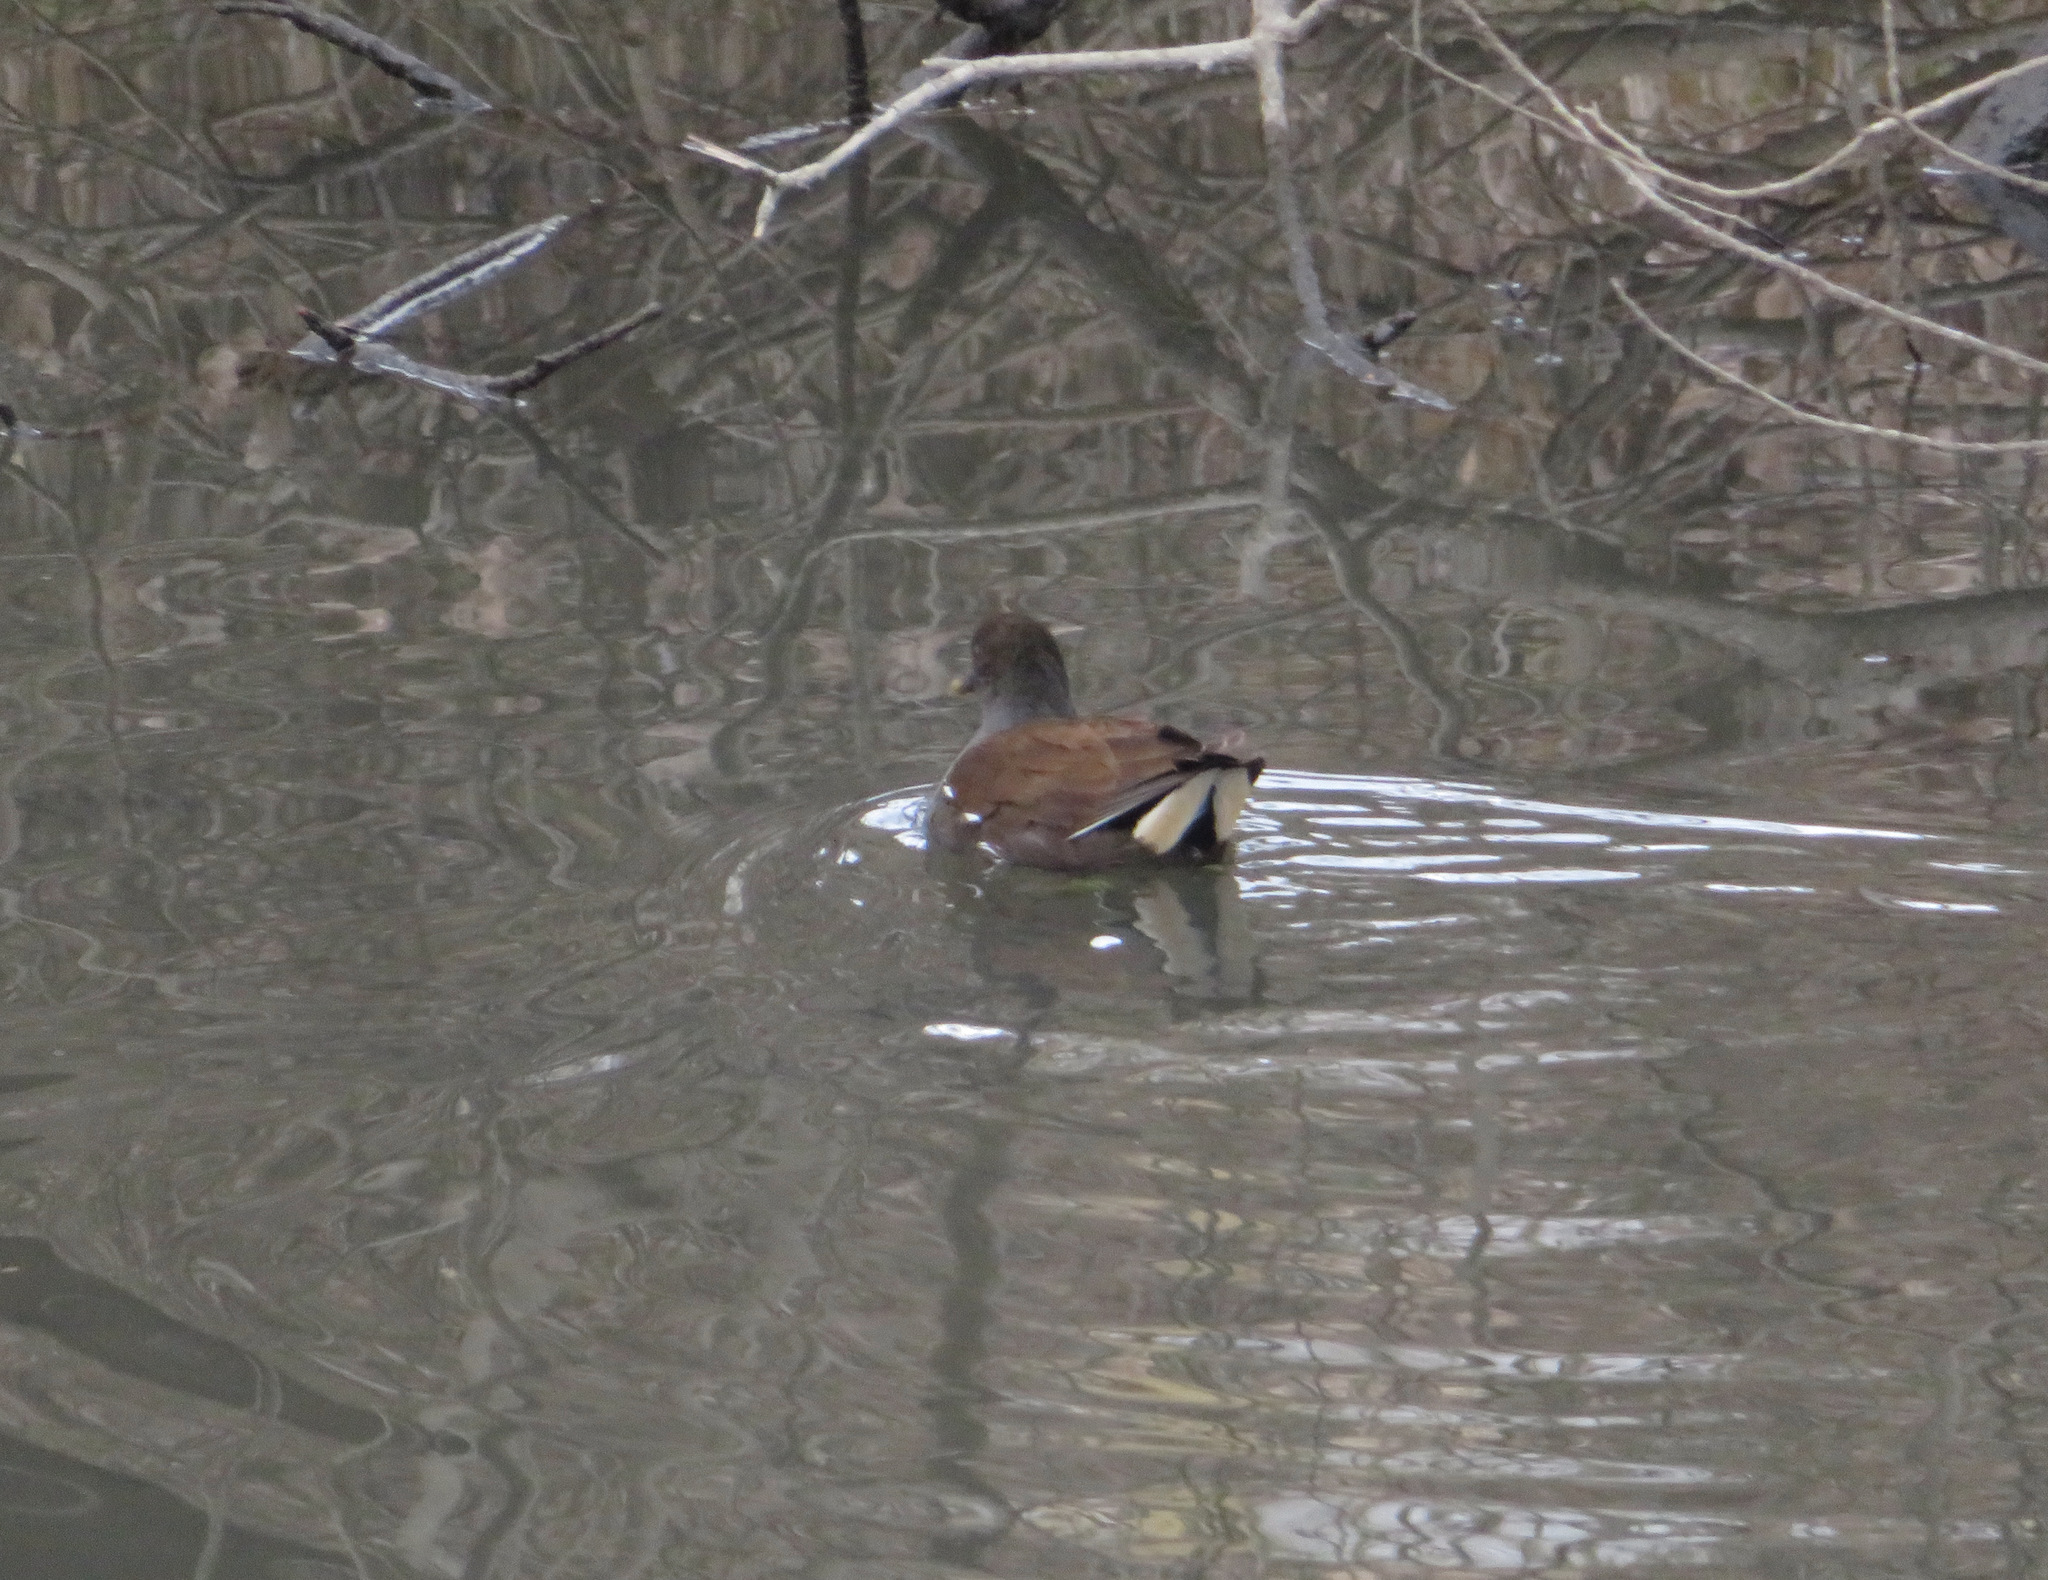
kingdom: Animalia
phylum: Chordata
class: Aves
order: Gruiformes
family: Rallidae
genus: Gallinula
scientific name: Gallinula chloropus
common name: Common moorhen
